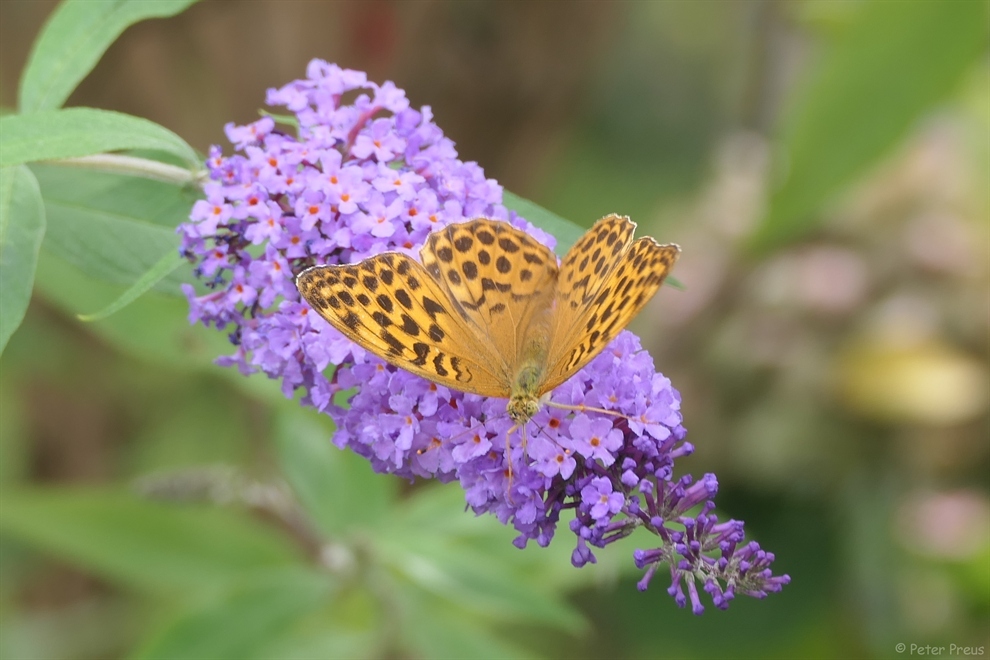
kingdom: Animalia
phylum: Arthropoda
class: Insecta
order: Lepidoptera
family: Nymphalidae
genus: Argynnis
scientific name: Argynnis paphia
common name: Silver-washed fritillary
